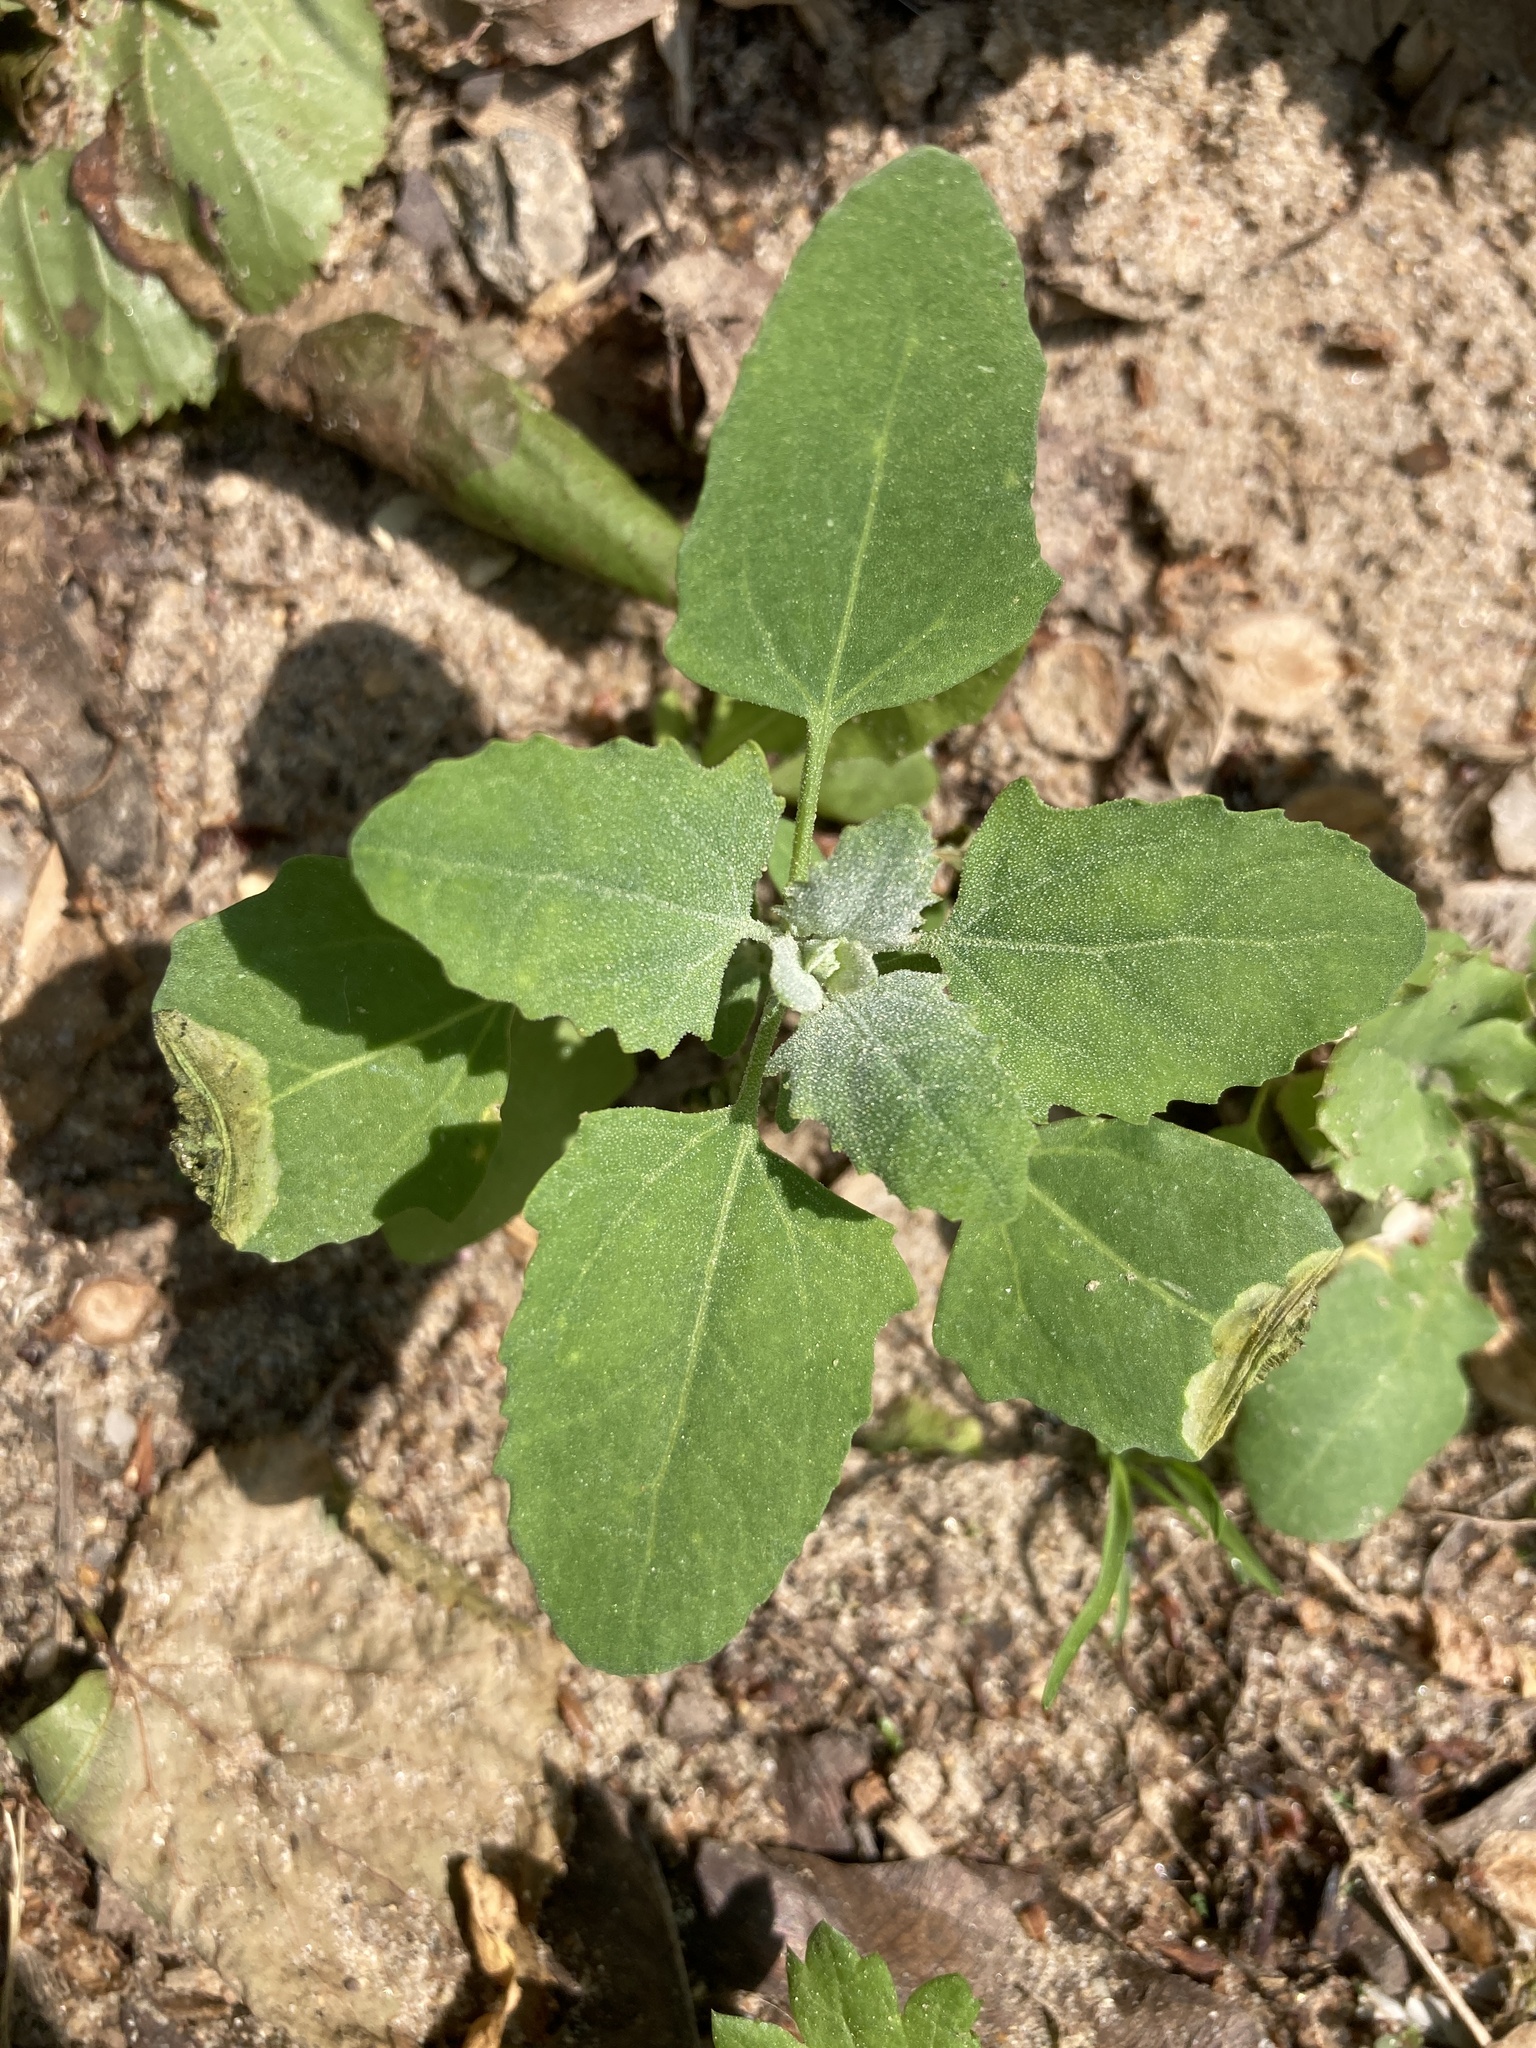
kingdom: Plantae
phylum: Tracheophyta
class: Magnoliopsida
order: Caryophyllales
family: Amaranthaceae
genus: Chenopodium
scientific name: Chenopodium album
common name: Fat-hen
